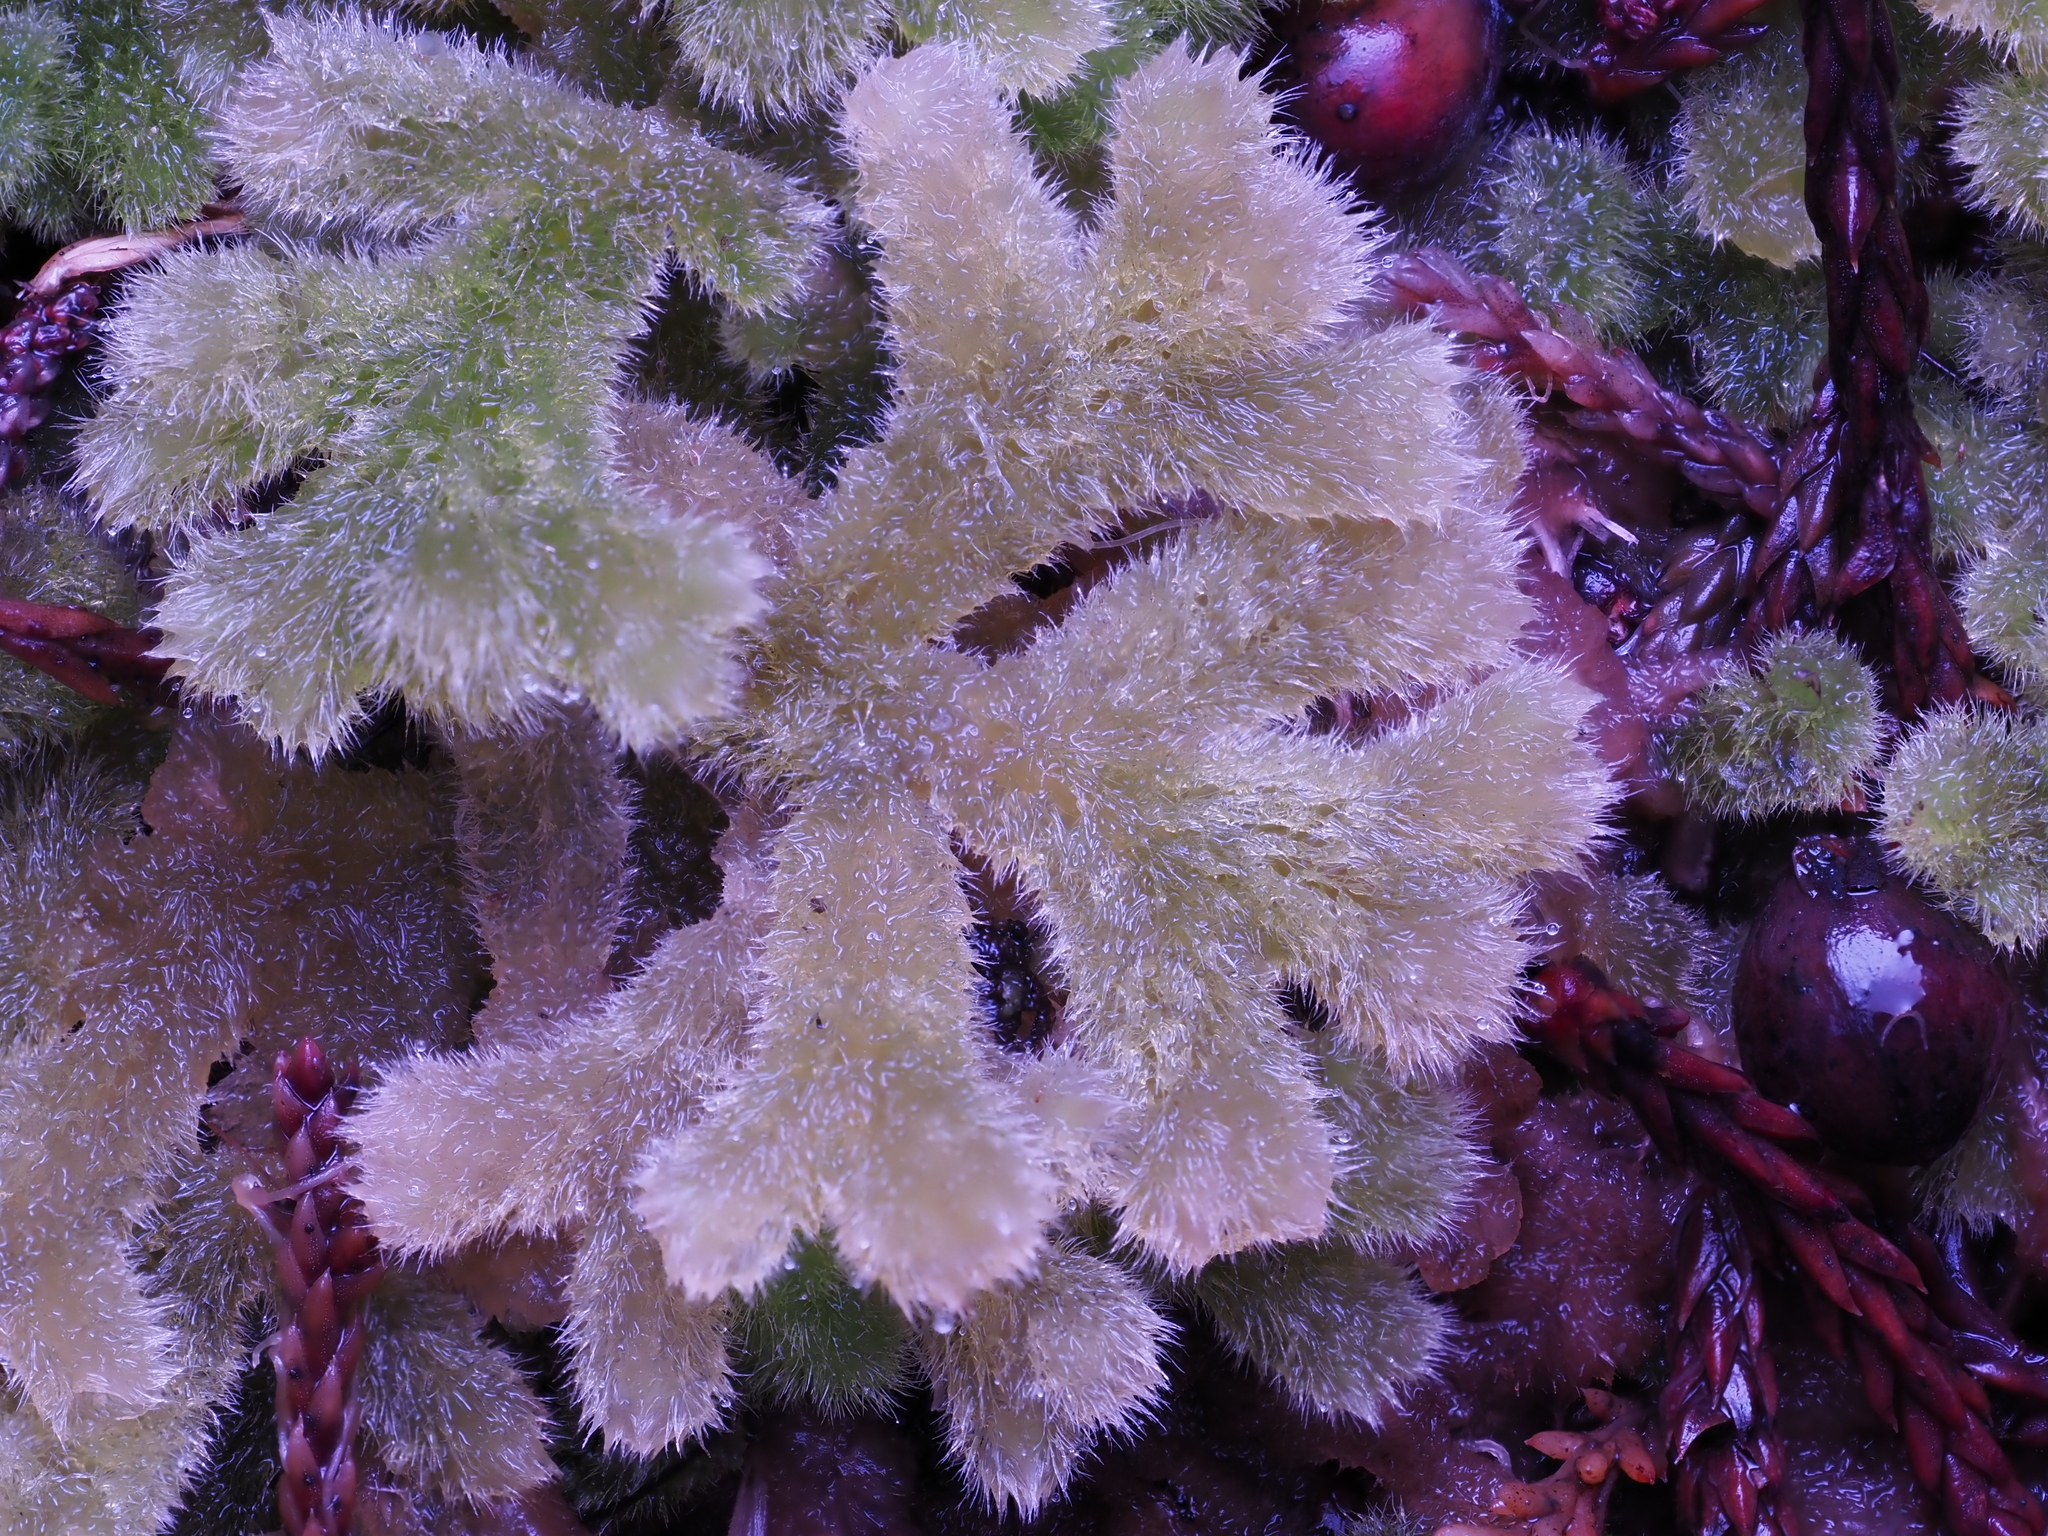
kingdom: Plantae
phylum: Marchantiophyta
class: Jungermanniopsida
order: Jungermanniales
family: Trichocoleaceae
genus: Leiomitra
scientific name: Leiomitra lanata
